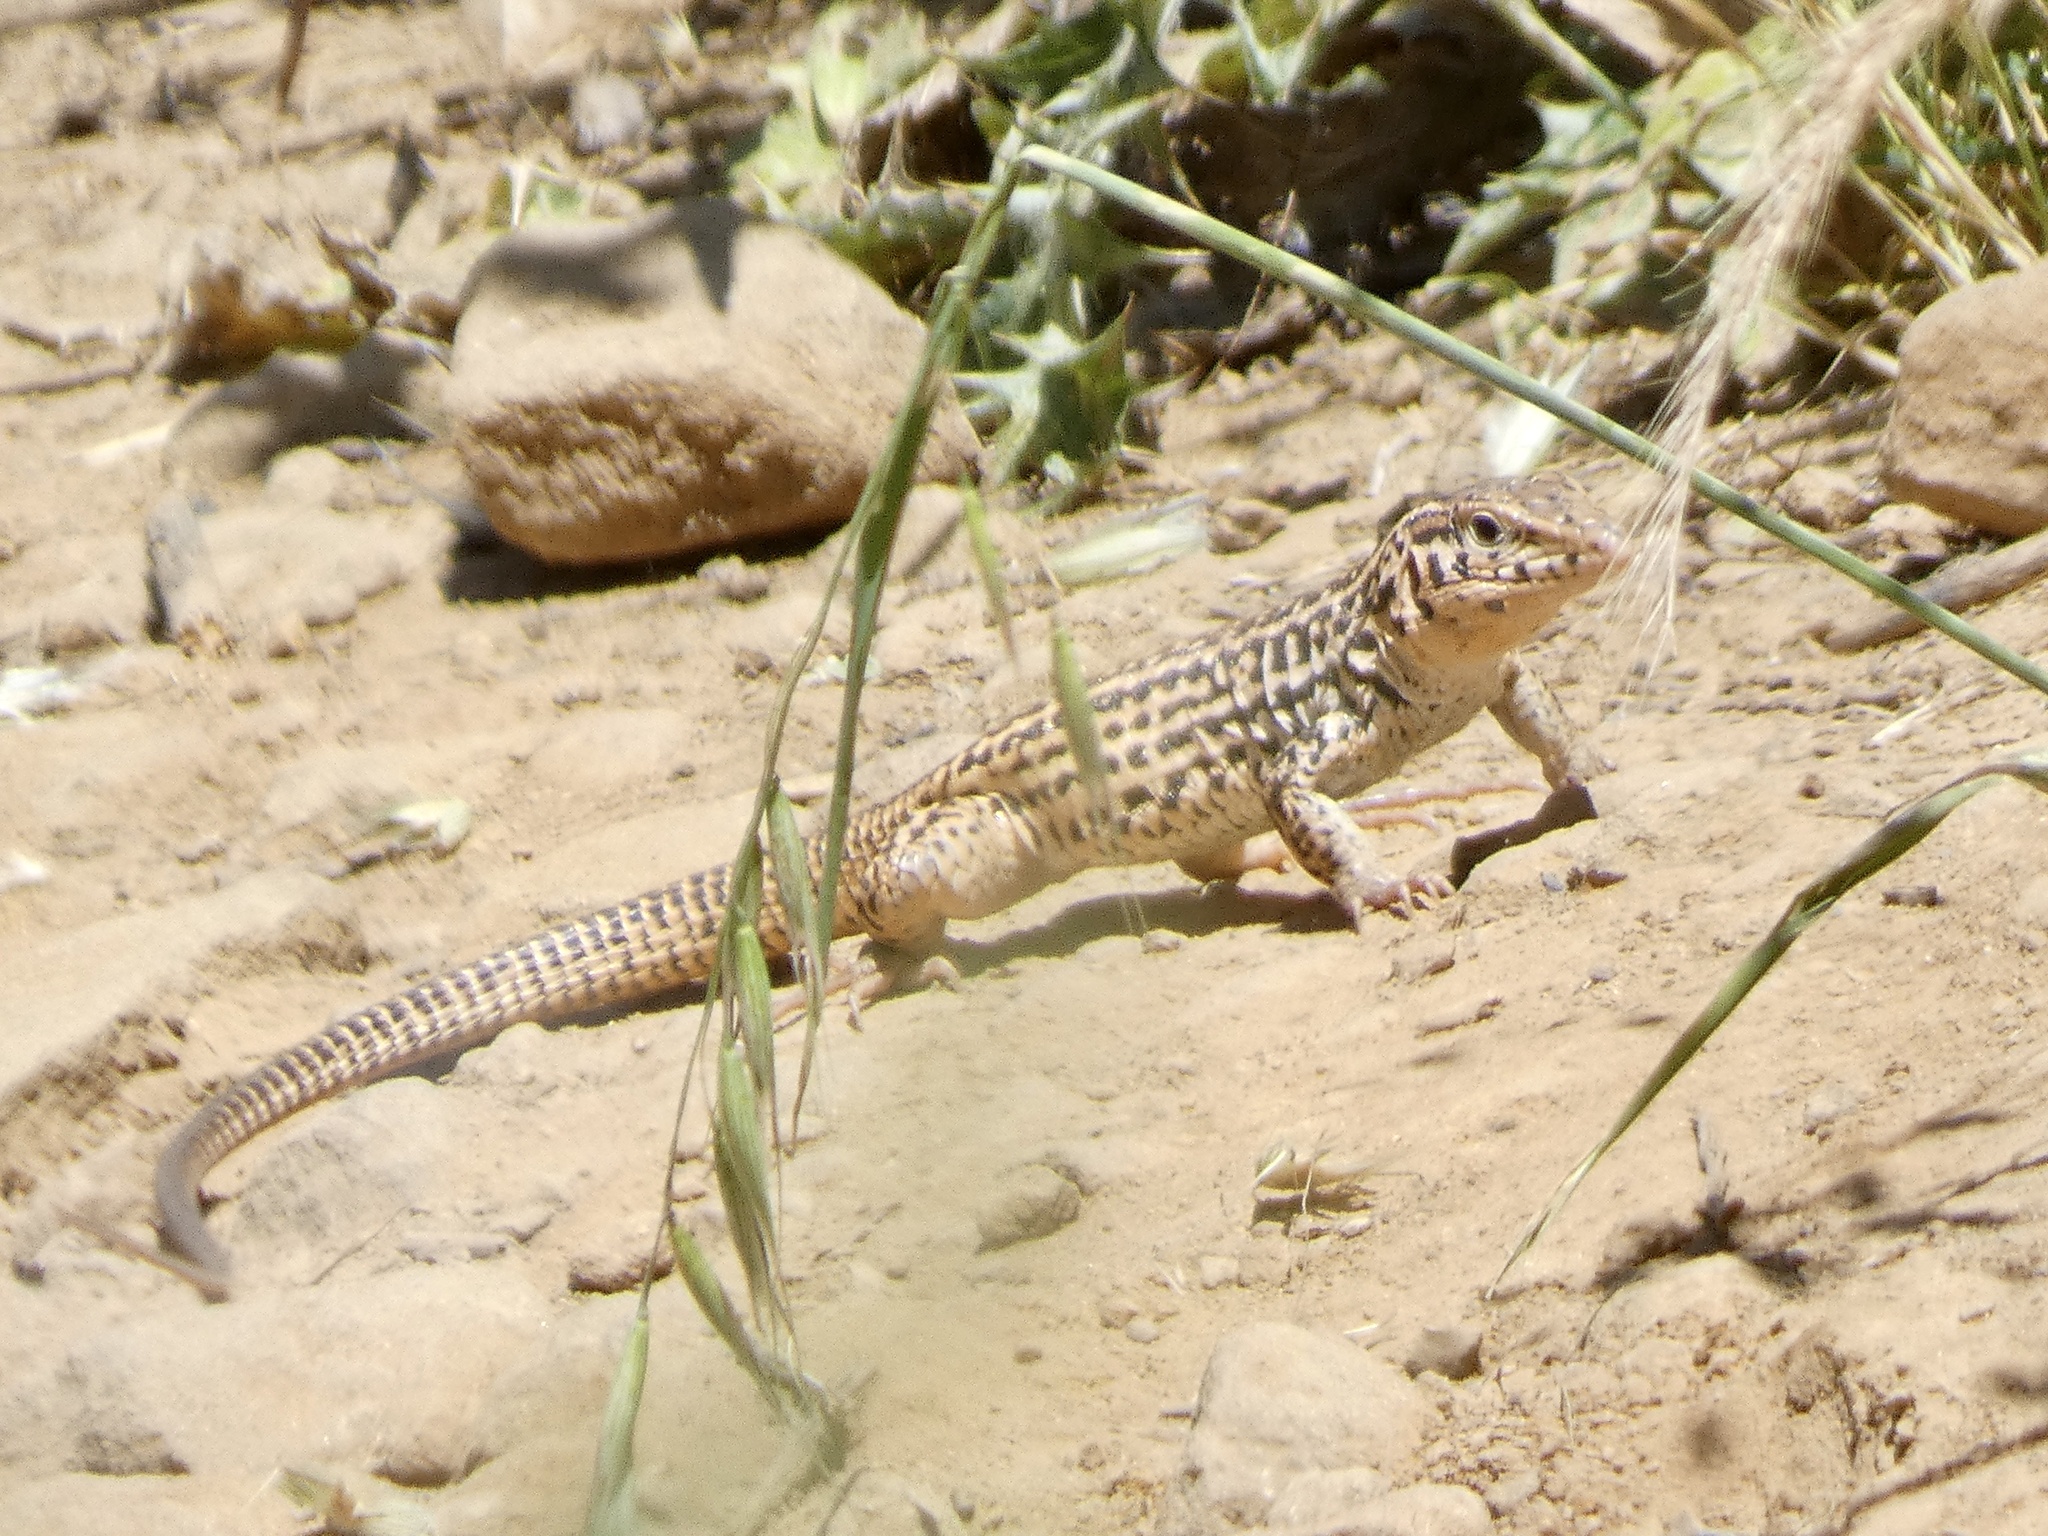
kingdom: Animalia
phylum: Chordata
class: Squamata
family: Teiidae
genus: Aspidoscelis
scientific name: Aspidoscelis tigris
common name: Tiger whiptail
